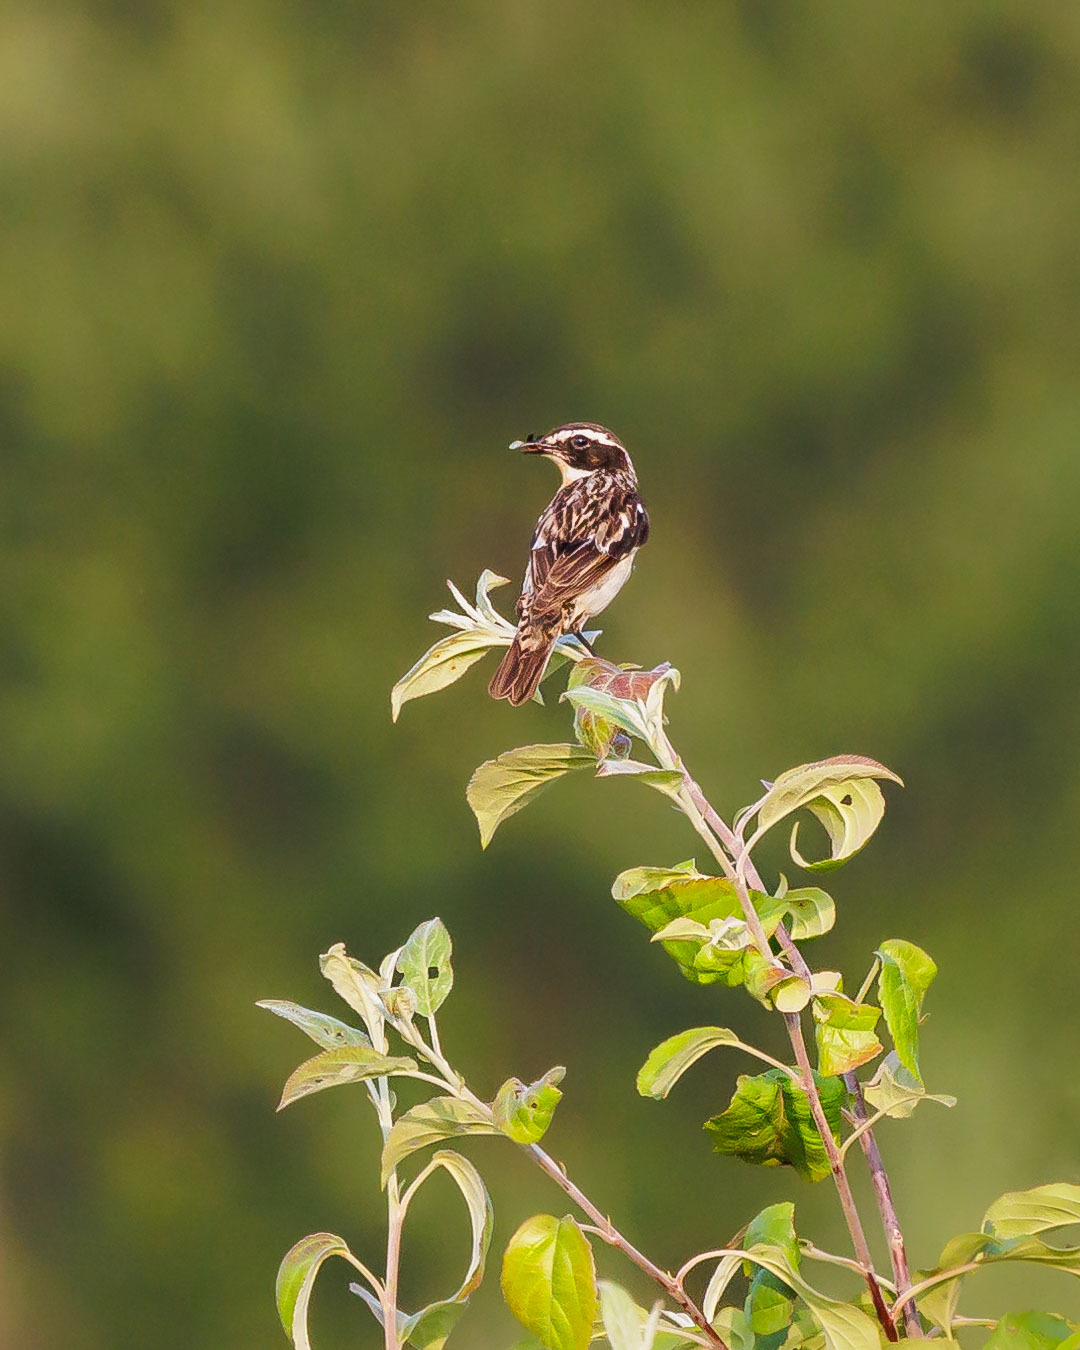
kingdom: Animalia
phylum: Chordata
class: Aves
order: Passeriformes
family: Muscicapidae
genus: Saxicola
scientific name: Saxicola rubetra
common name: Whinchat
